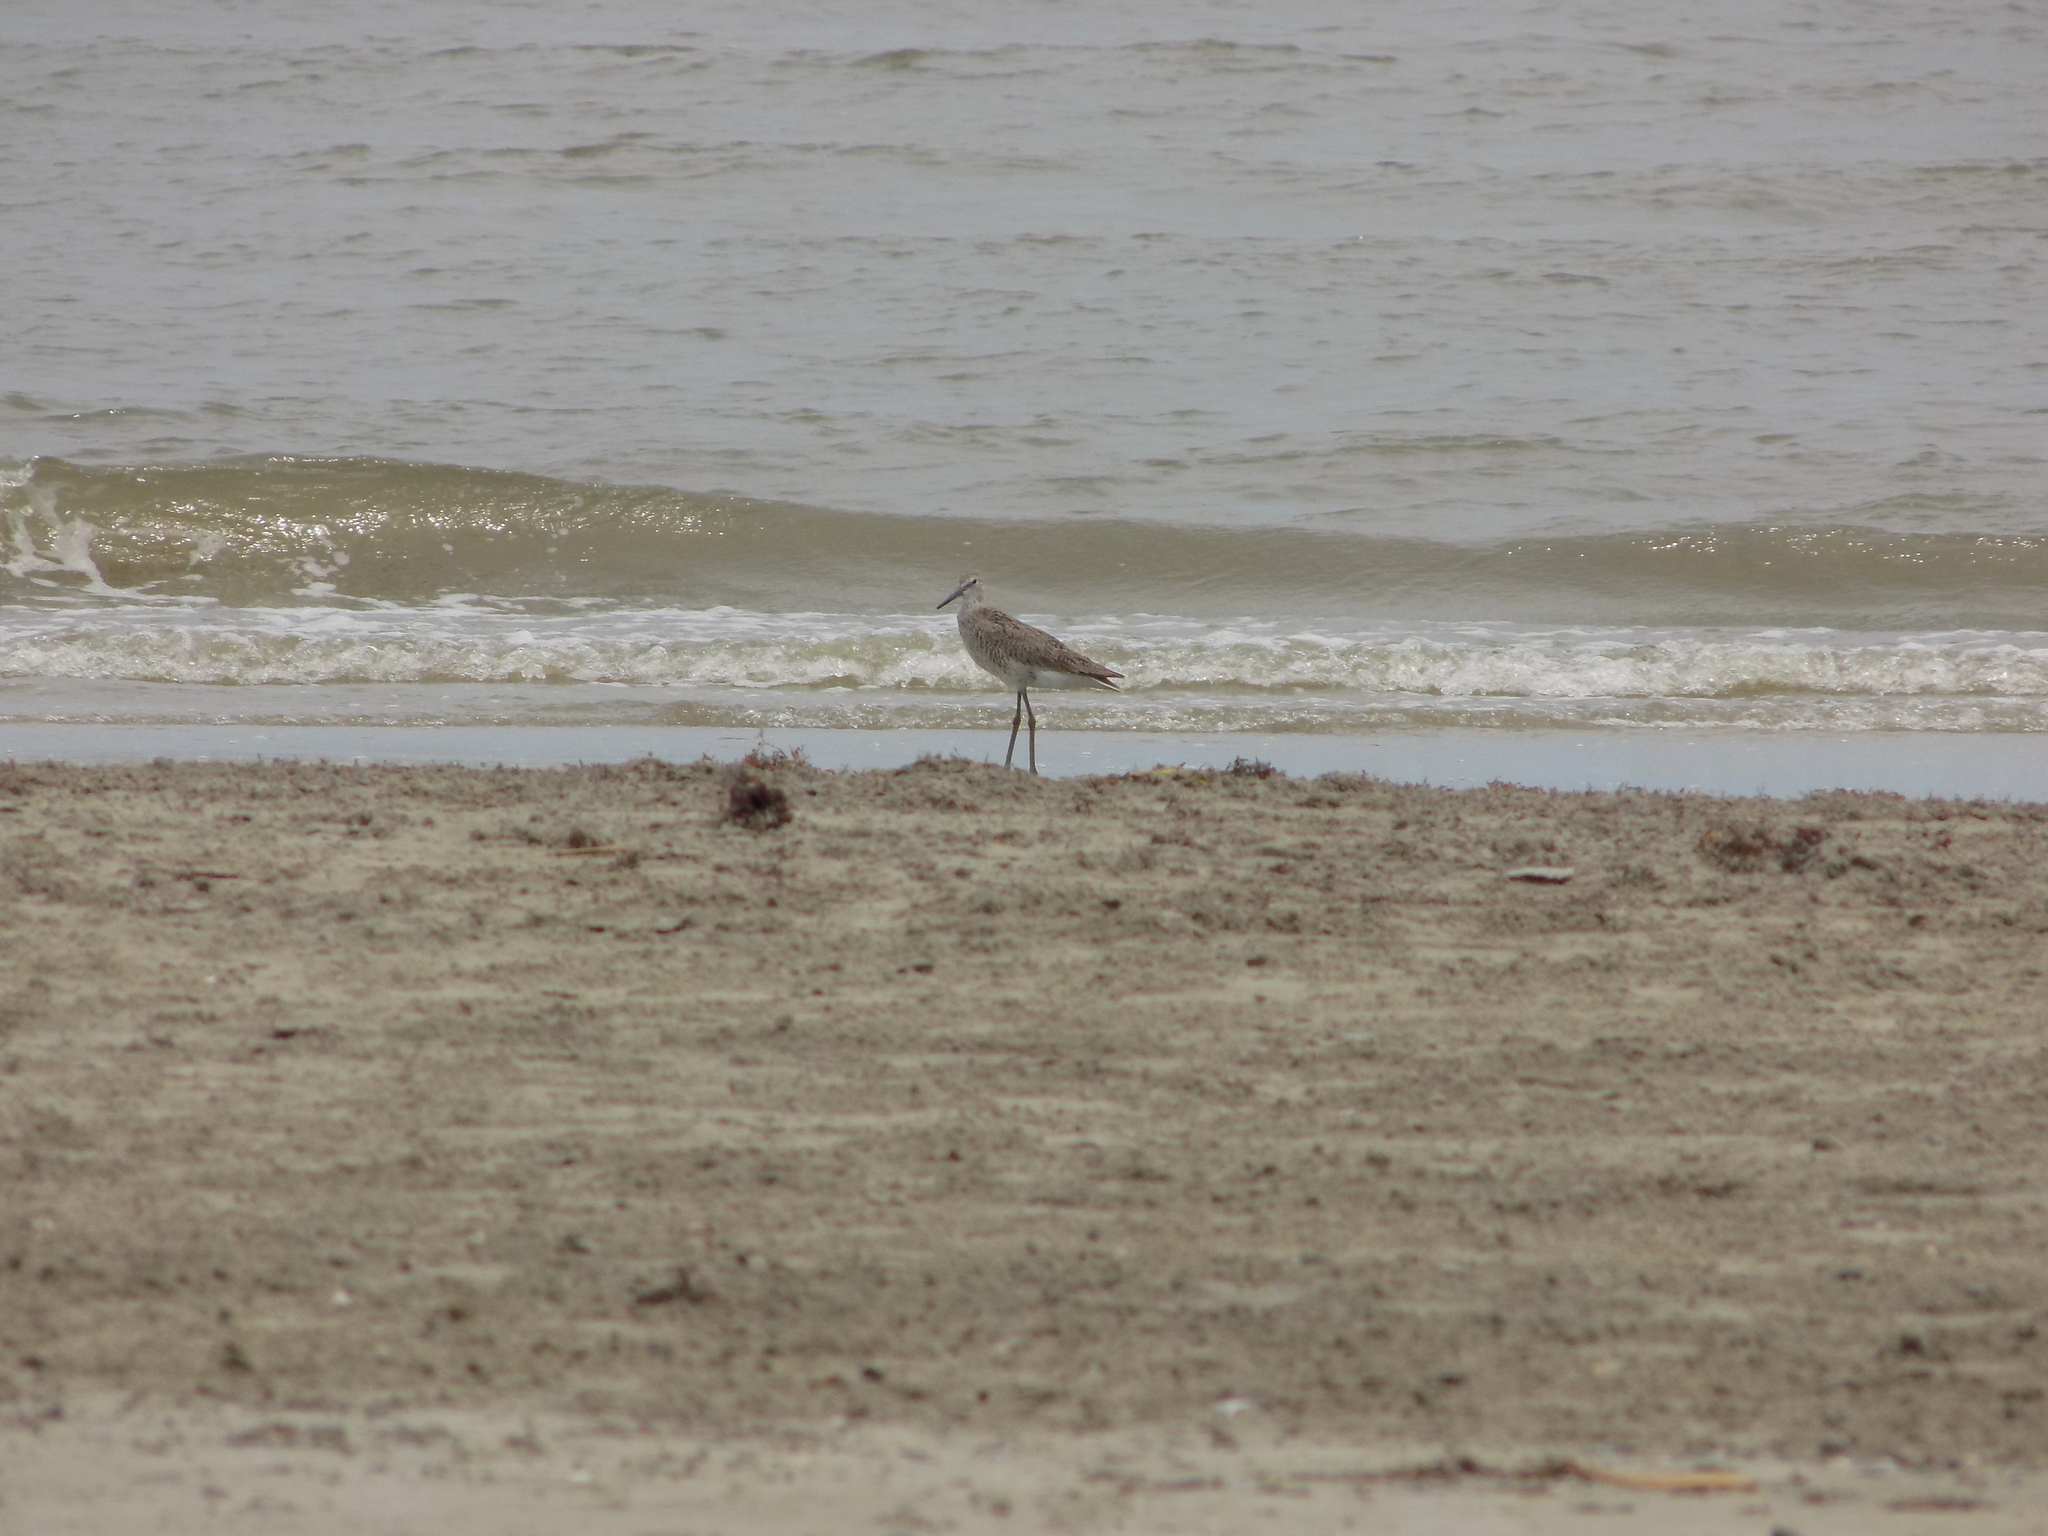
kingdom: Animalia
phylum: Chordata
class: Aves
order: Charadriiformes
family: Scolopacidae
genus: Tringa
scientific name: Tringa semipalmata
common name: Willet
